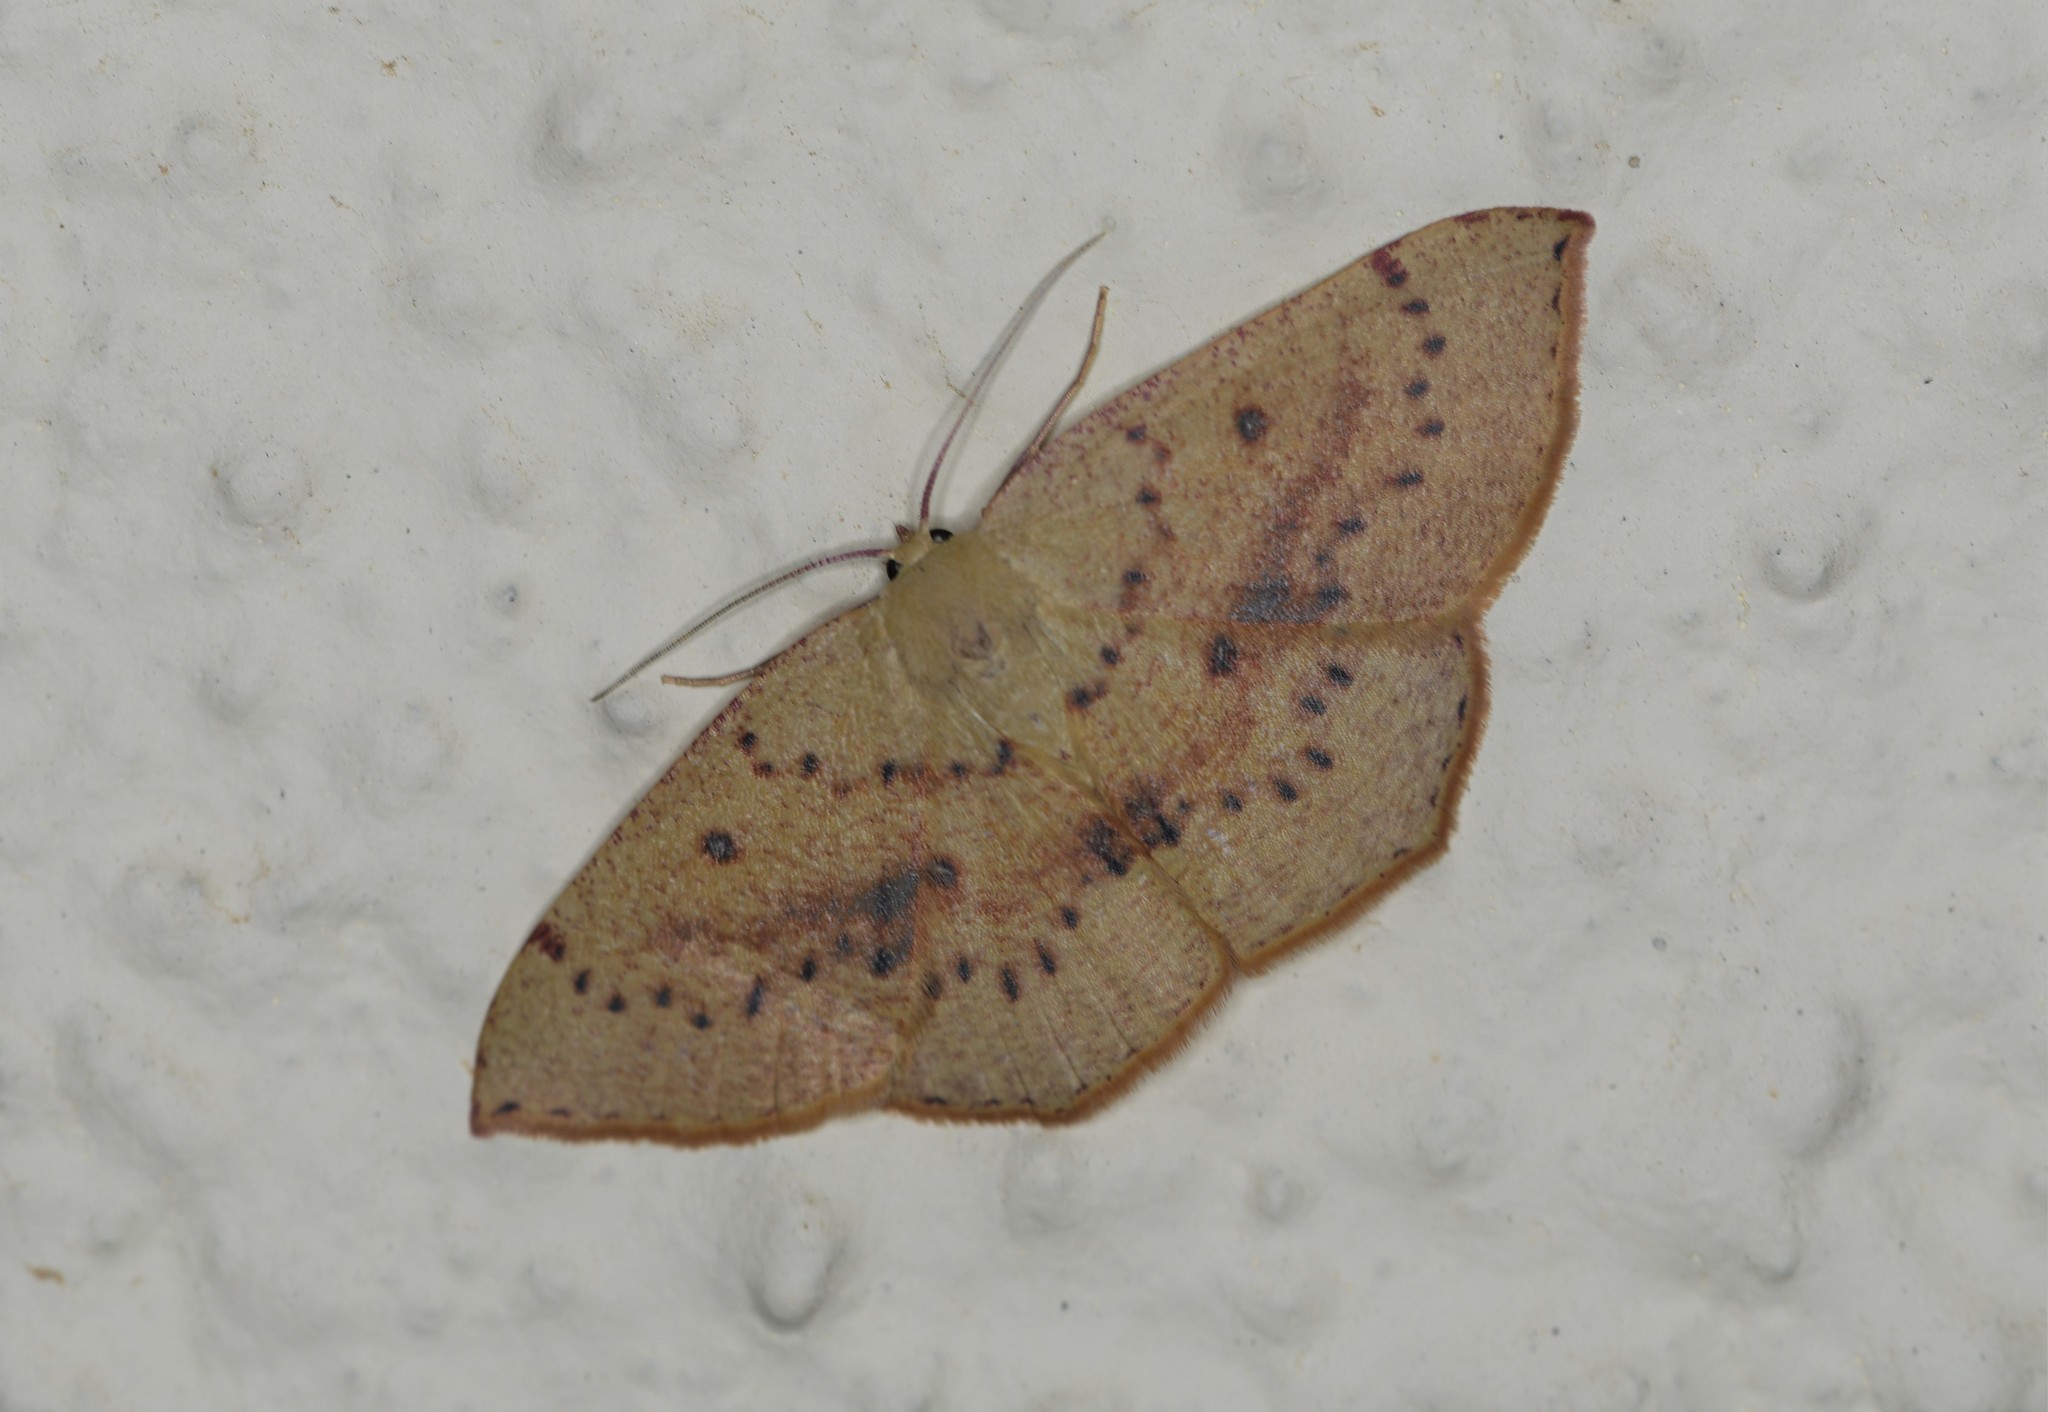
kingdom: Animalia
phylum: Arthropoda
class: Insecta
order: Lepidoptera
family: Geometridae
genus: Cyclophora
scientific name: Cyclophora puppillaria
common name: Blair's mocha
